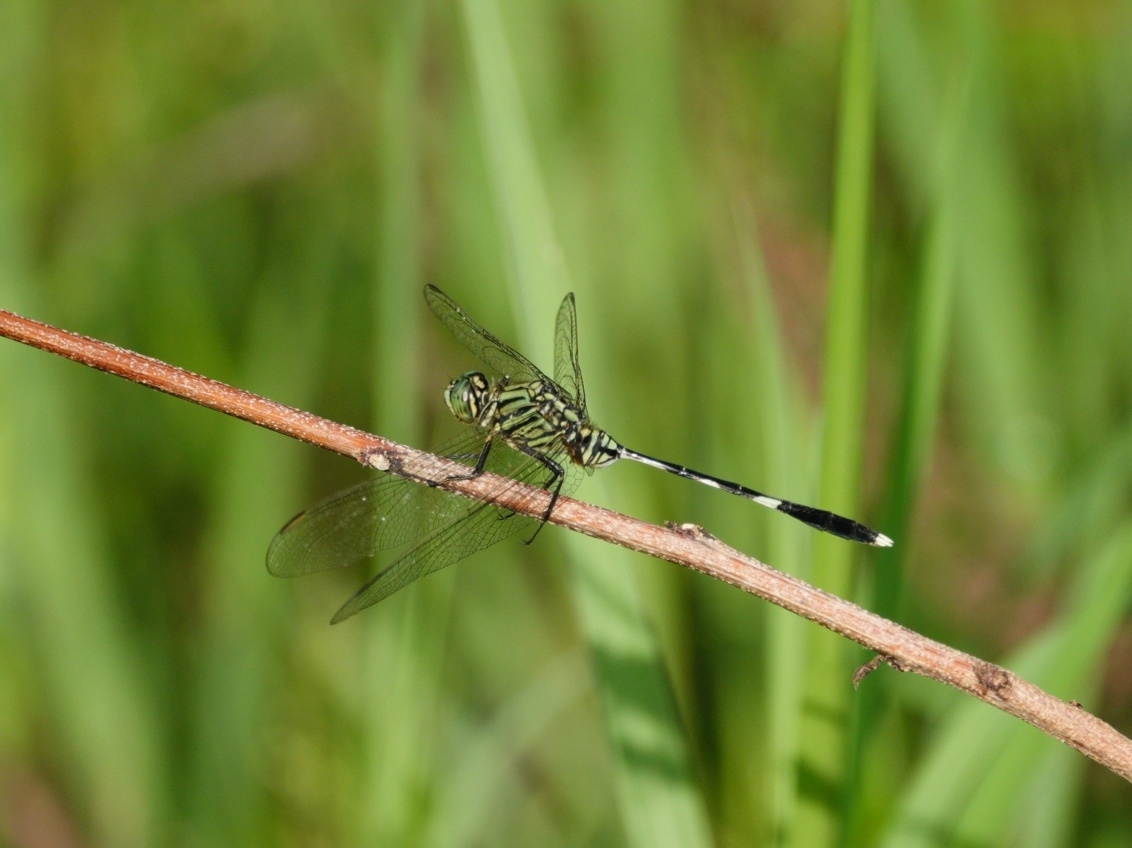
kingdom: Animalia
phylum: Arthropoda
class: Insecta
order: Odonata
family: Libellulidae
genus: Orthetrum
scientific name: Orthetrum sabina
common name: Slender skimmer
